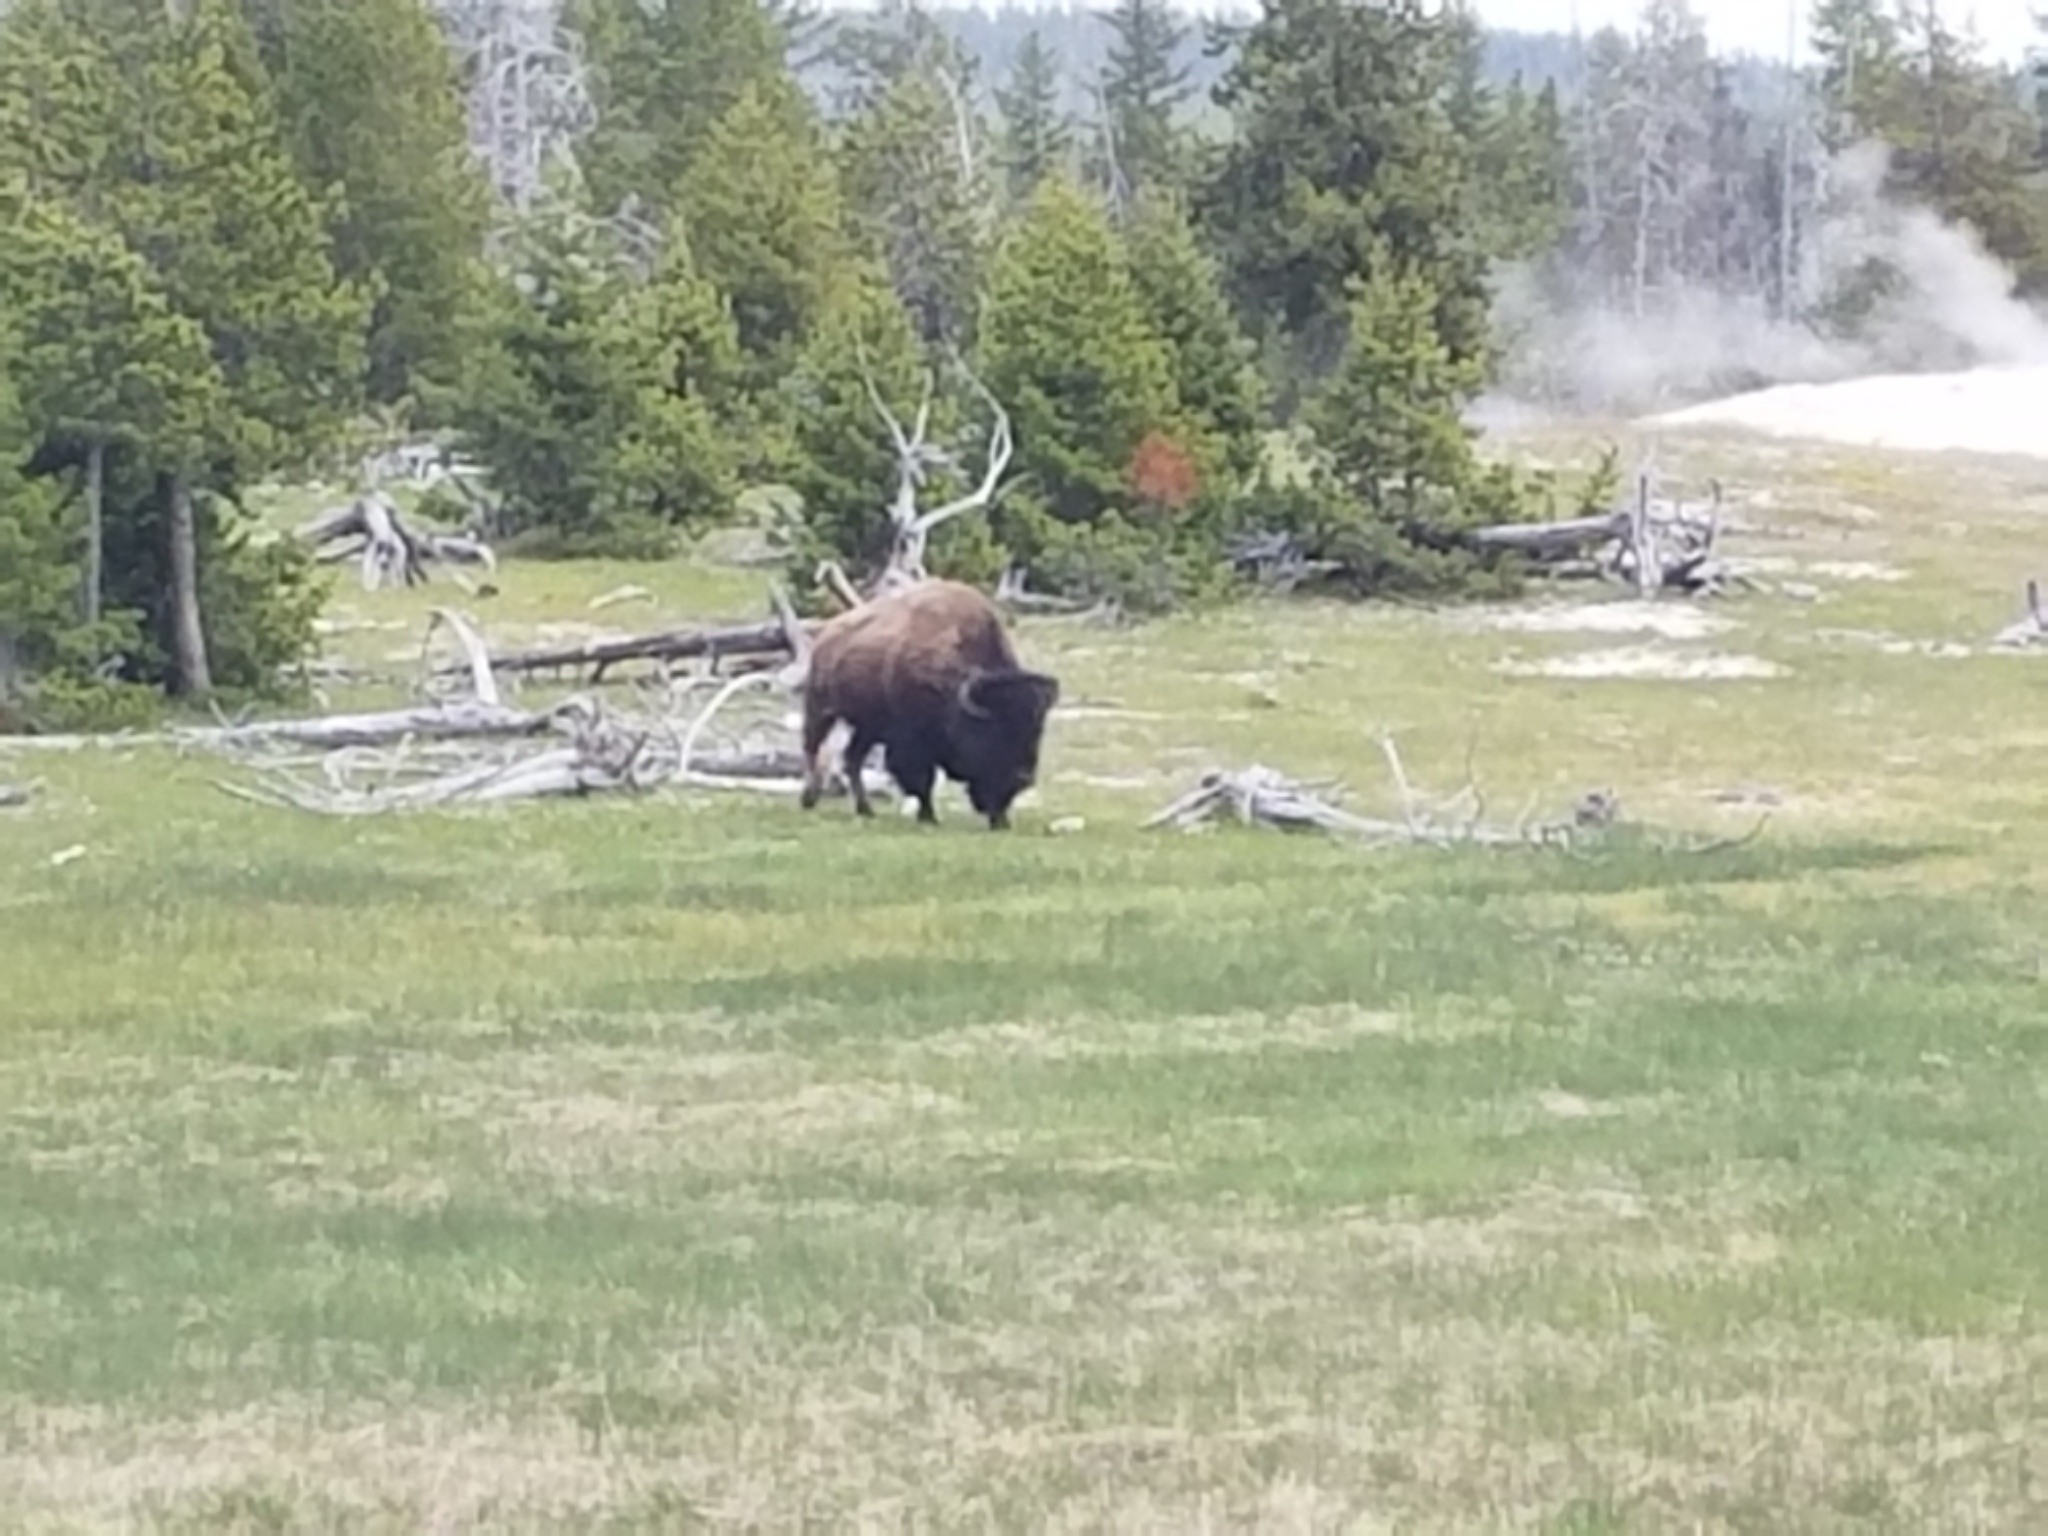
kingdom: Animalia
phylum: Chordata
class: Mammalia
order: Artiodactyla
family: Bovidae
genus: Bison
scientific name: Bison bison
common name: American bison
